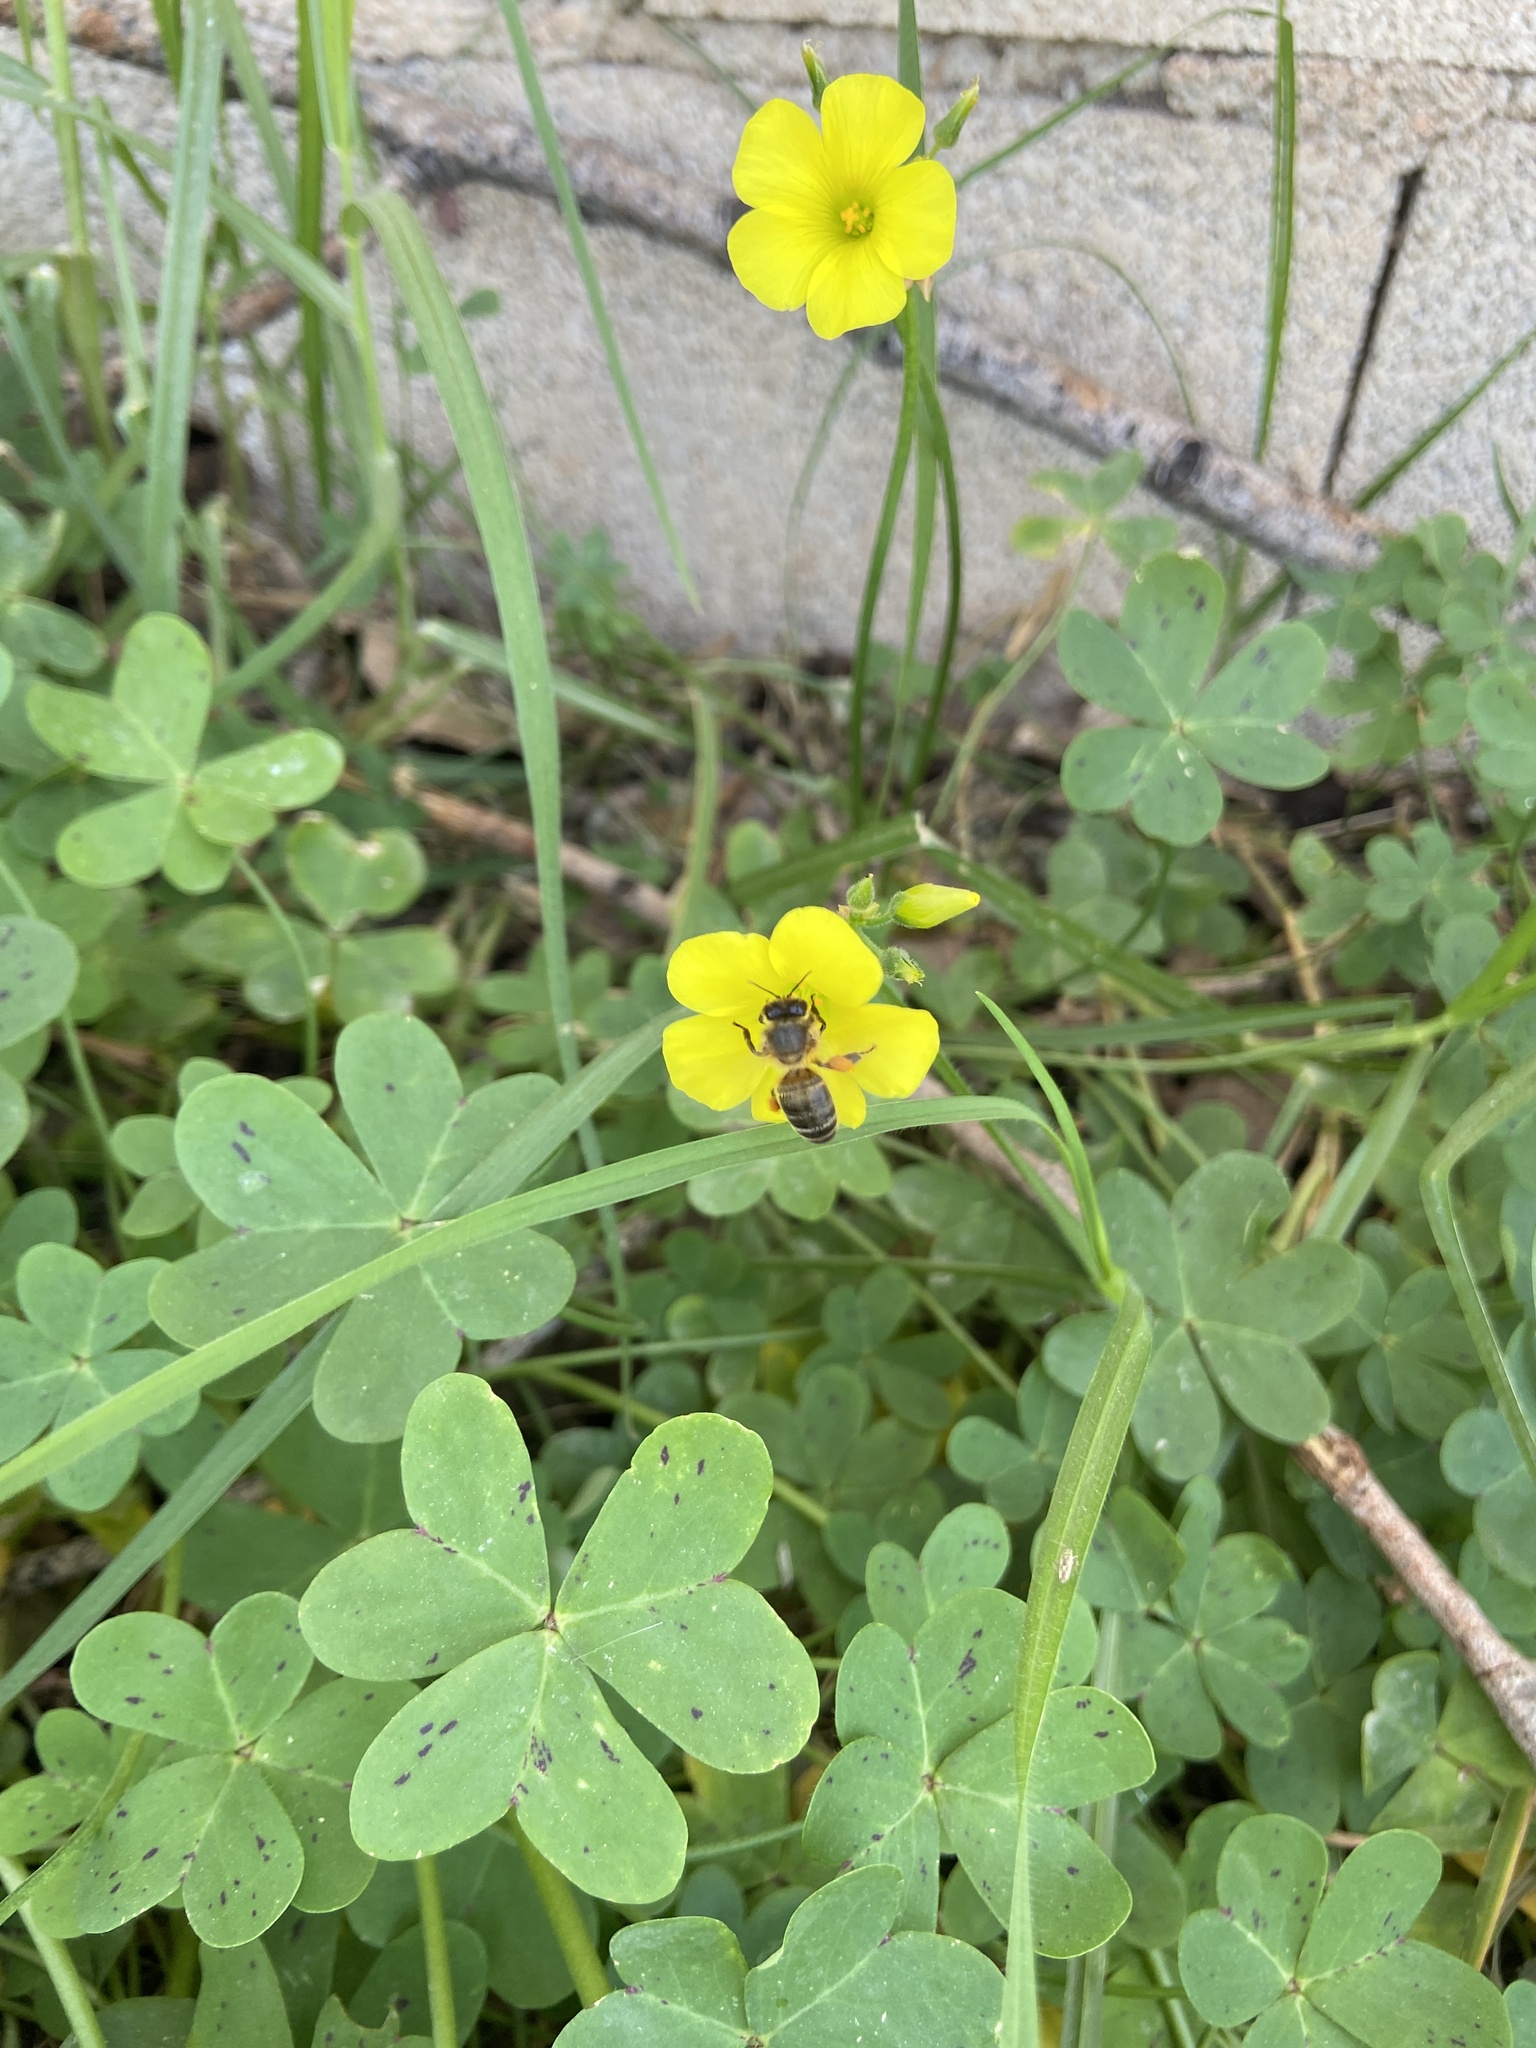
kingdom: Plantae
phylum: Tracheophyta
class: Magnoliopsida
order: Oxalidales
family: Oxalidaceae
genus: Oxalis
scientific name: Oxalis pes-caprae
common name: Bermuda-buttercup
